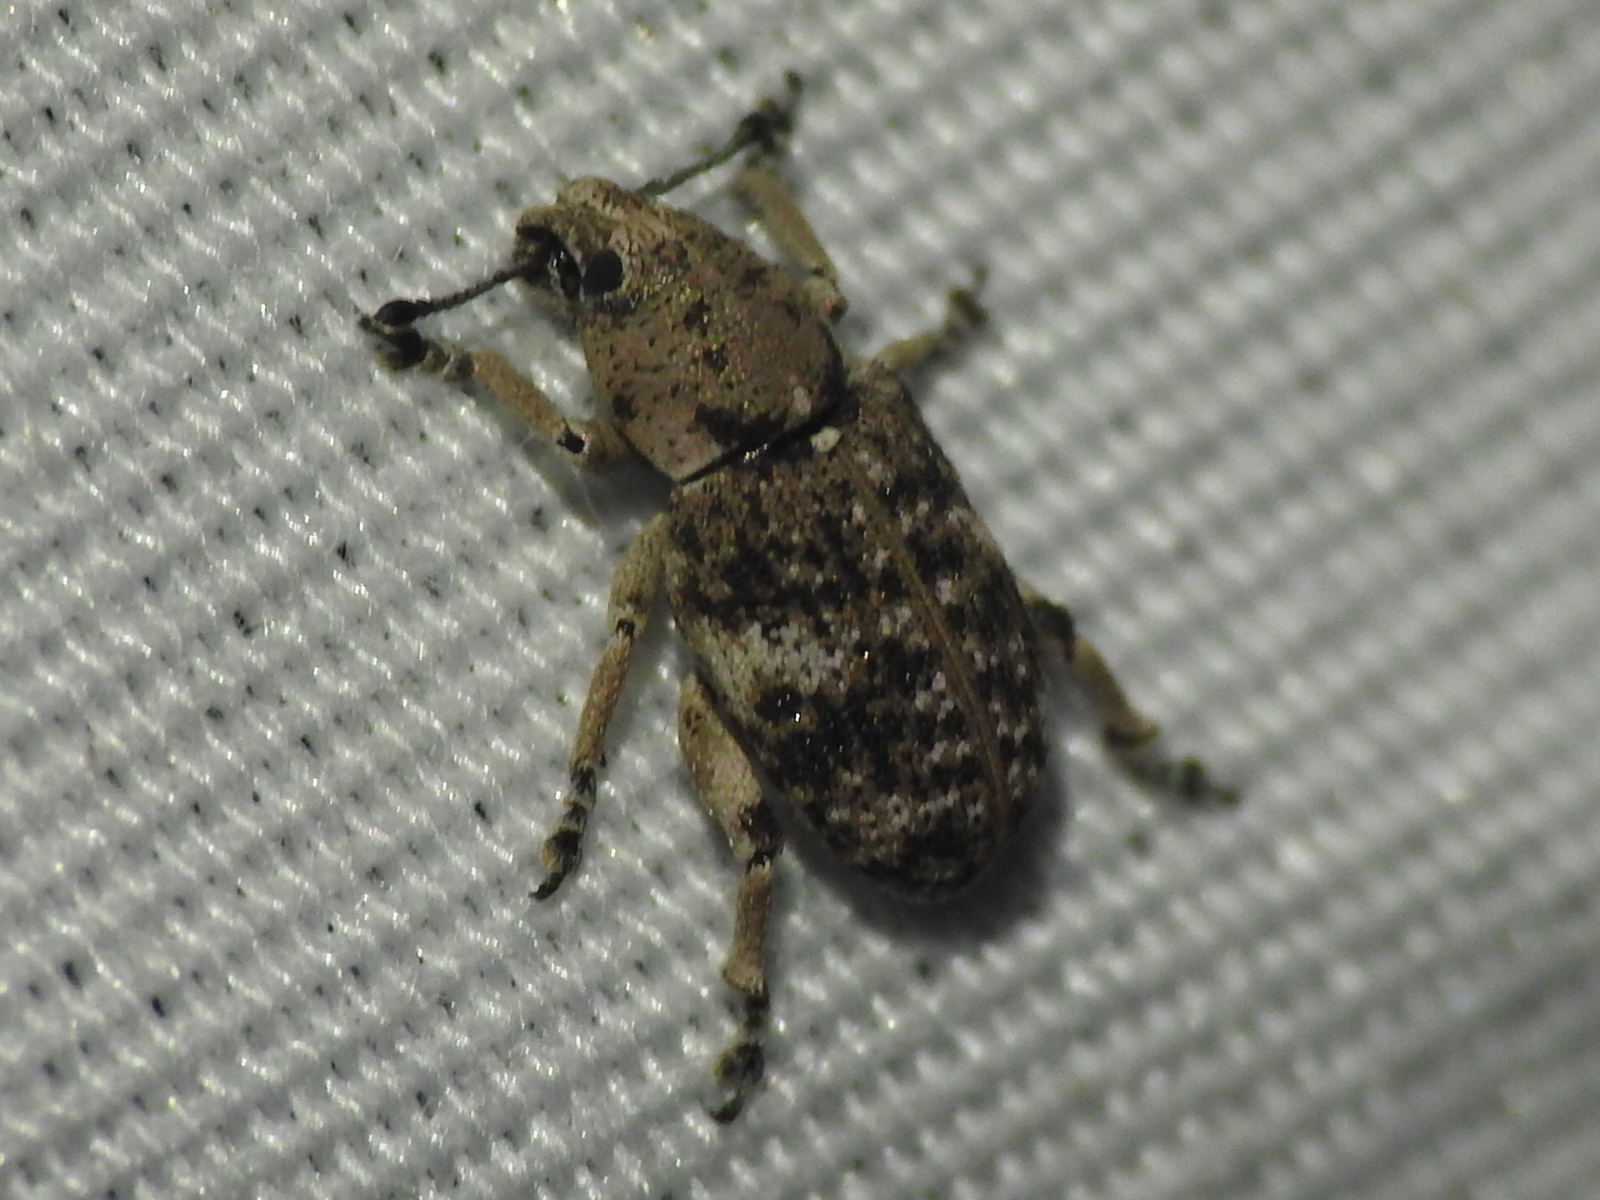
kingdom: Animalia
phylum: Arthropoda
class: Insecta
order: Coleoptera
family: Curculionidae
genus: Colecerus
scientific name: Colecerus marmoratus
